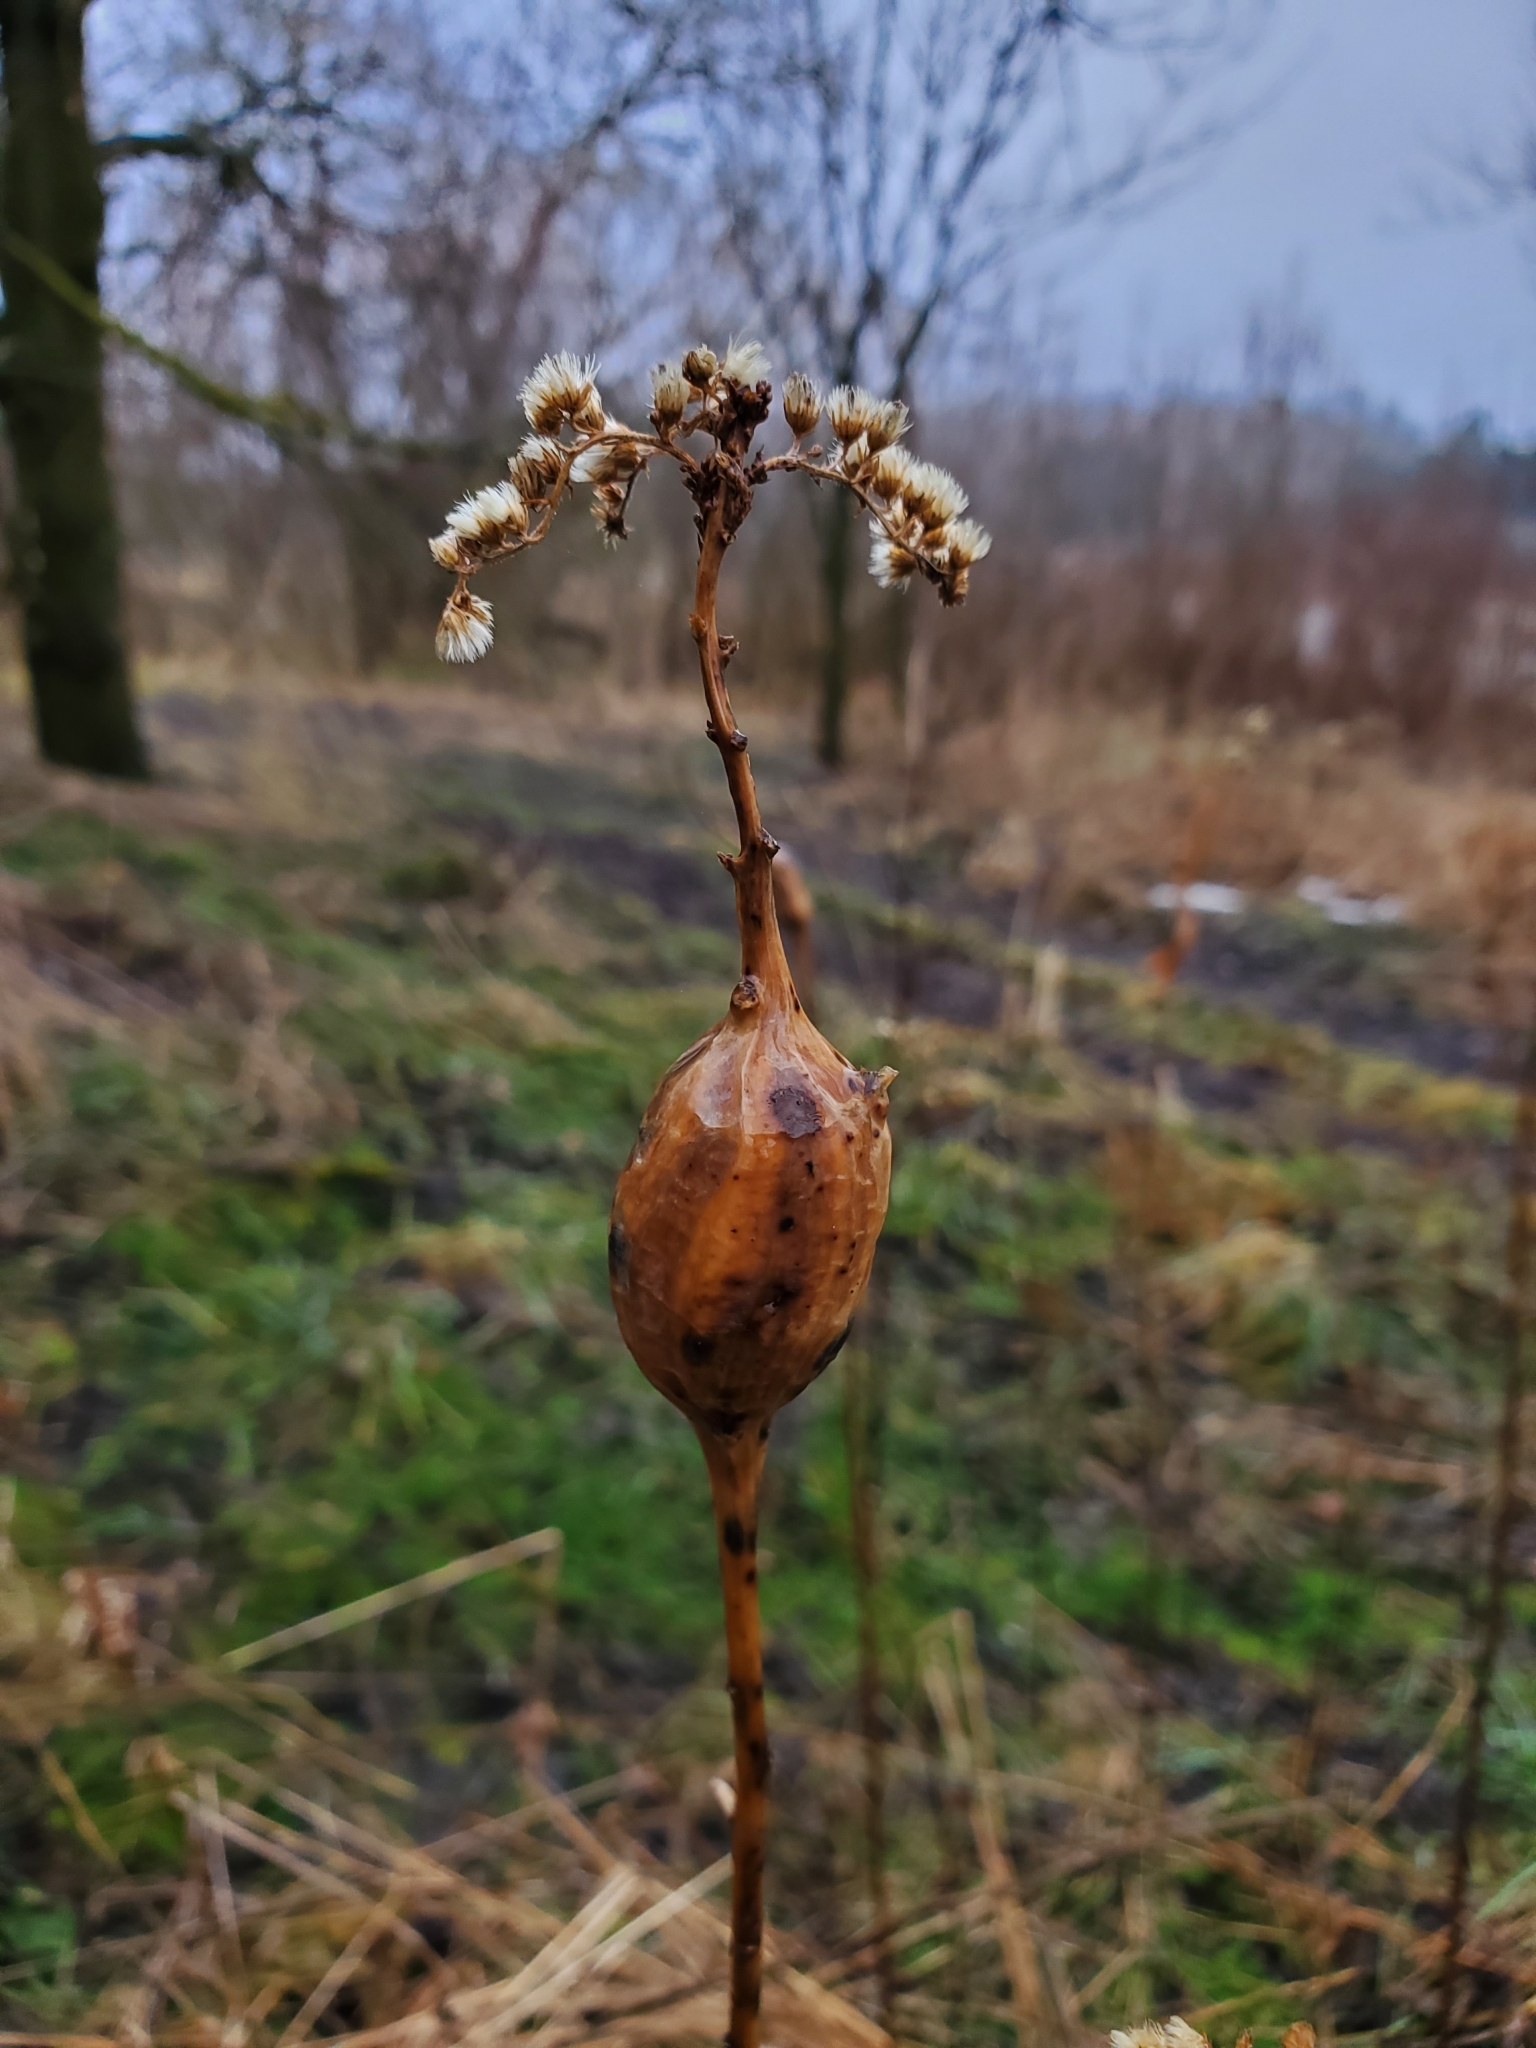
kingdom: Animalia
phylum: Arthropoda
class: Insecta
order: Diptera
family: Tephritidae
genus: Eurosta
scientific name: Eurosta solidaginis
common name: Goldenrod gall fly
